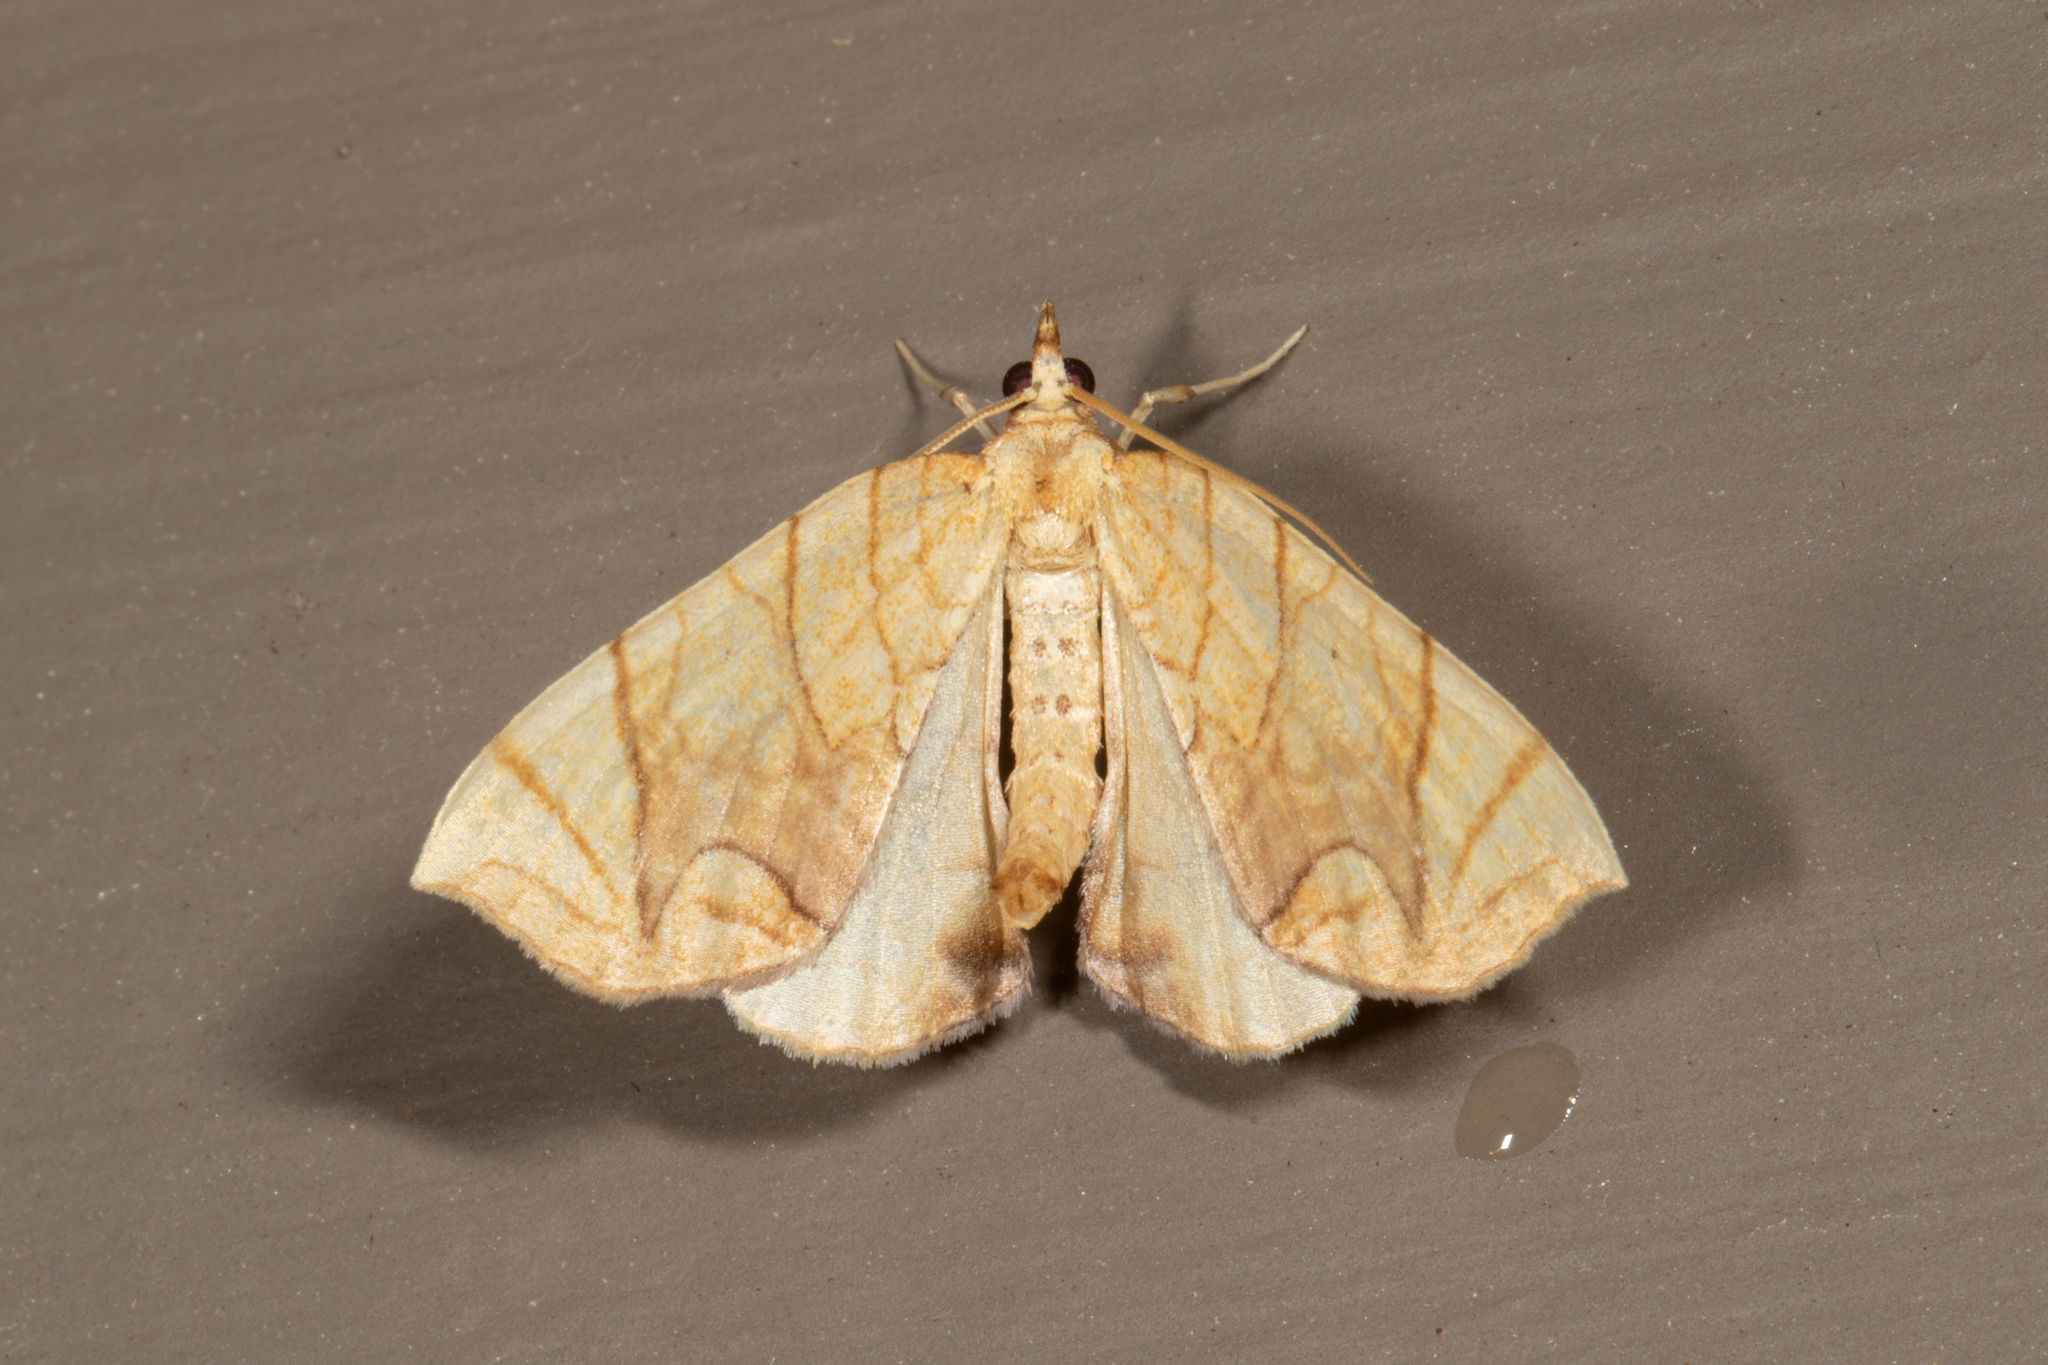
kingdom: Animalia
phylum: Arthropoda
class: Insecta
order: Lepidoptera
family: Geometridae
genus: Eulithis
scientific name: Eulithis
